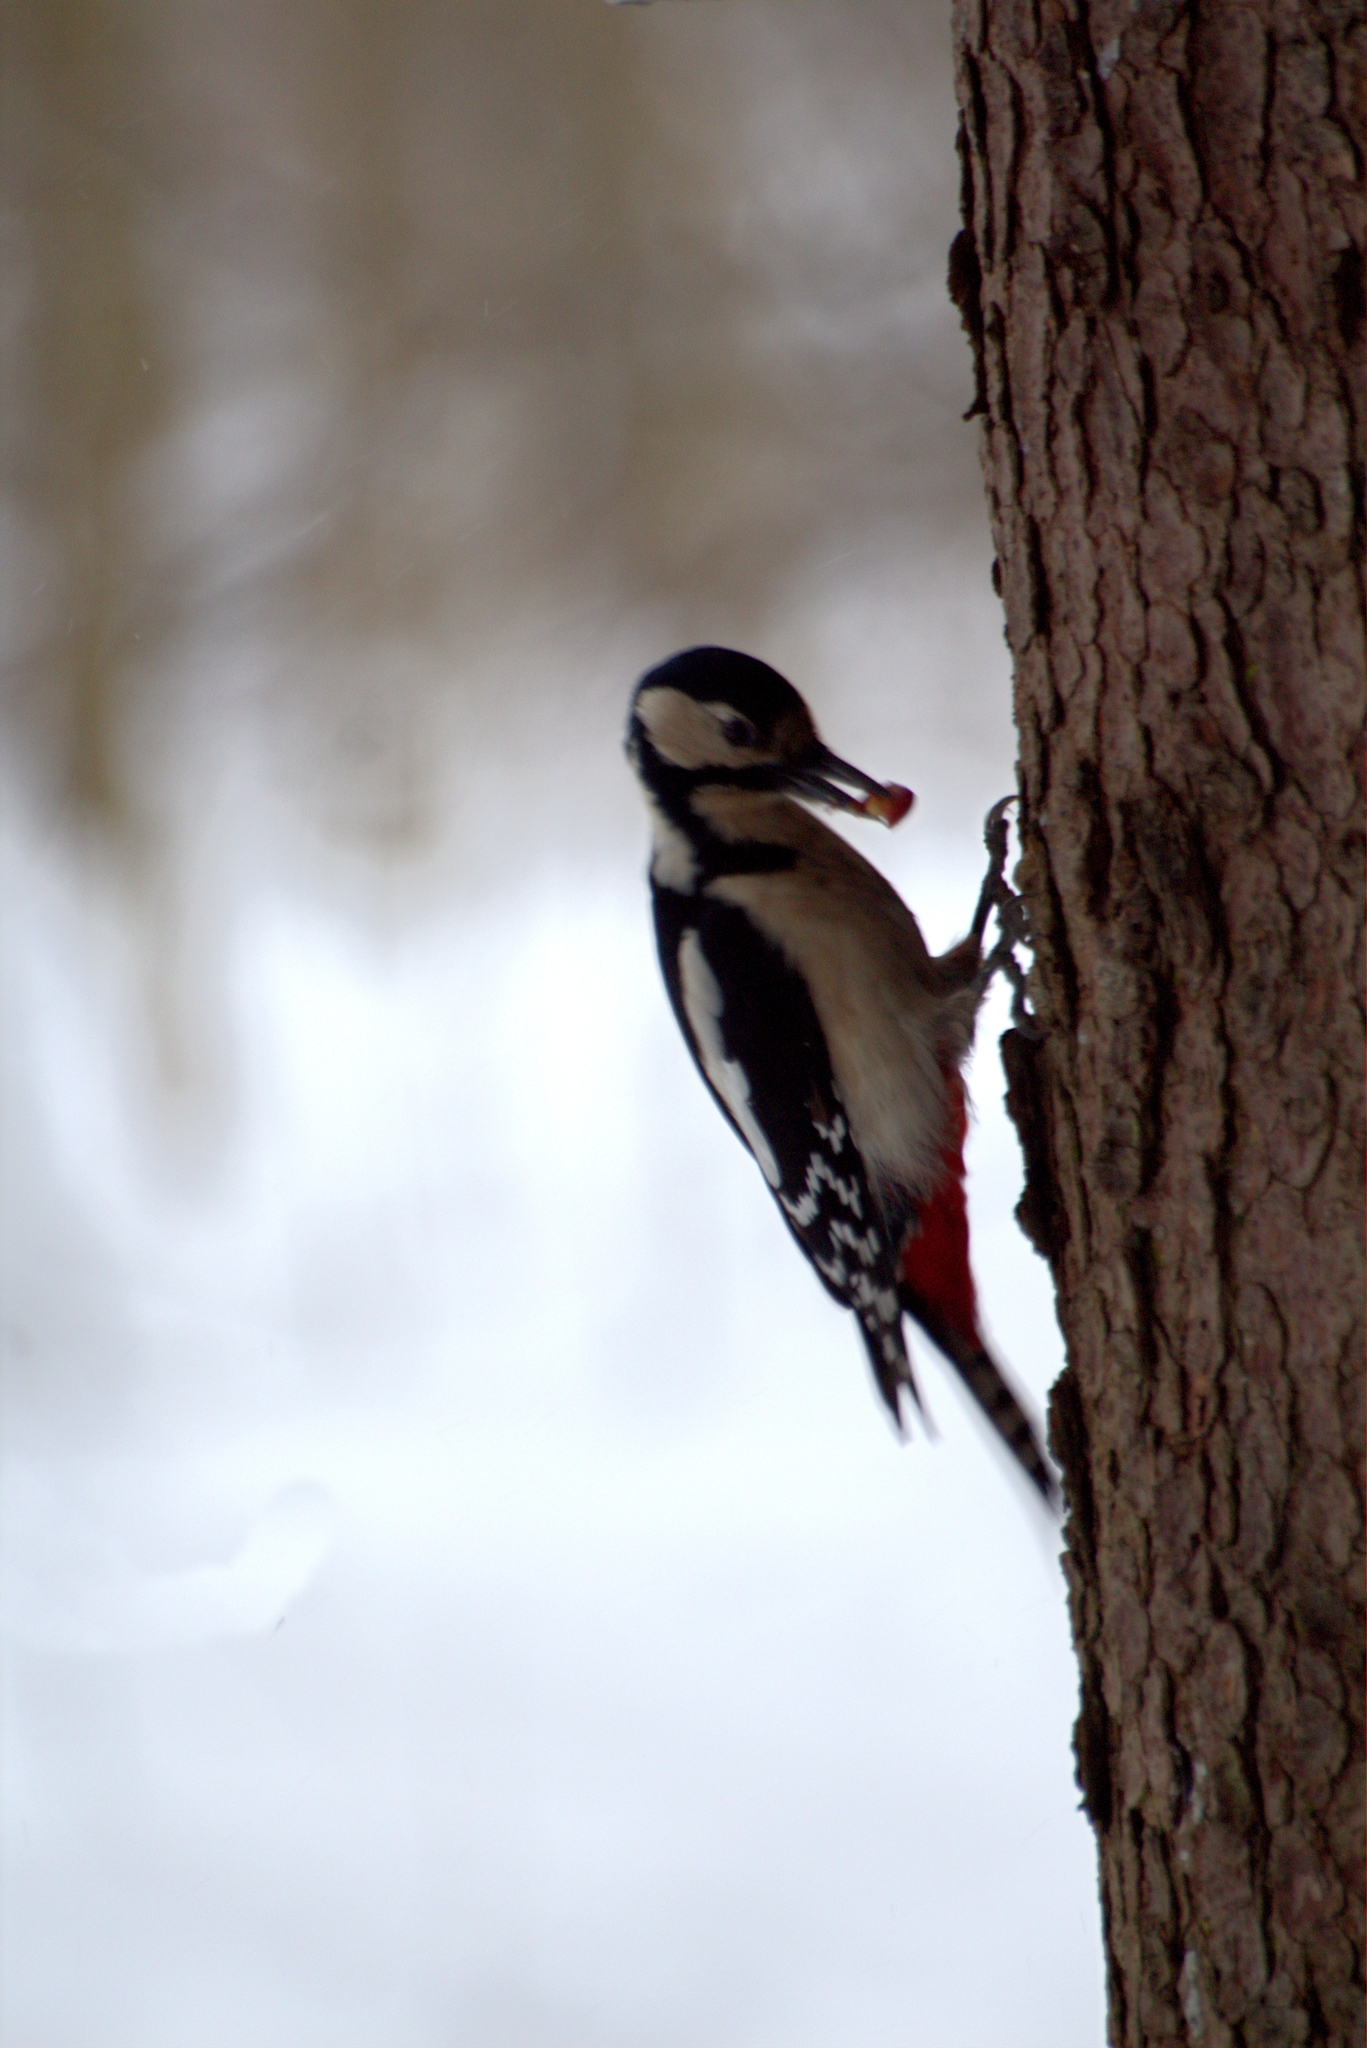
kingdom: Animalia
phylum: Chordata
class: Aves
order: Piciformes
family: Picidae
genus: Dendrocopos
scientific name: Dendrocopos major
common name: Great spotted woodpecker
